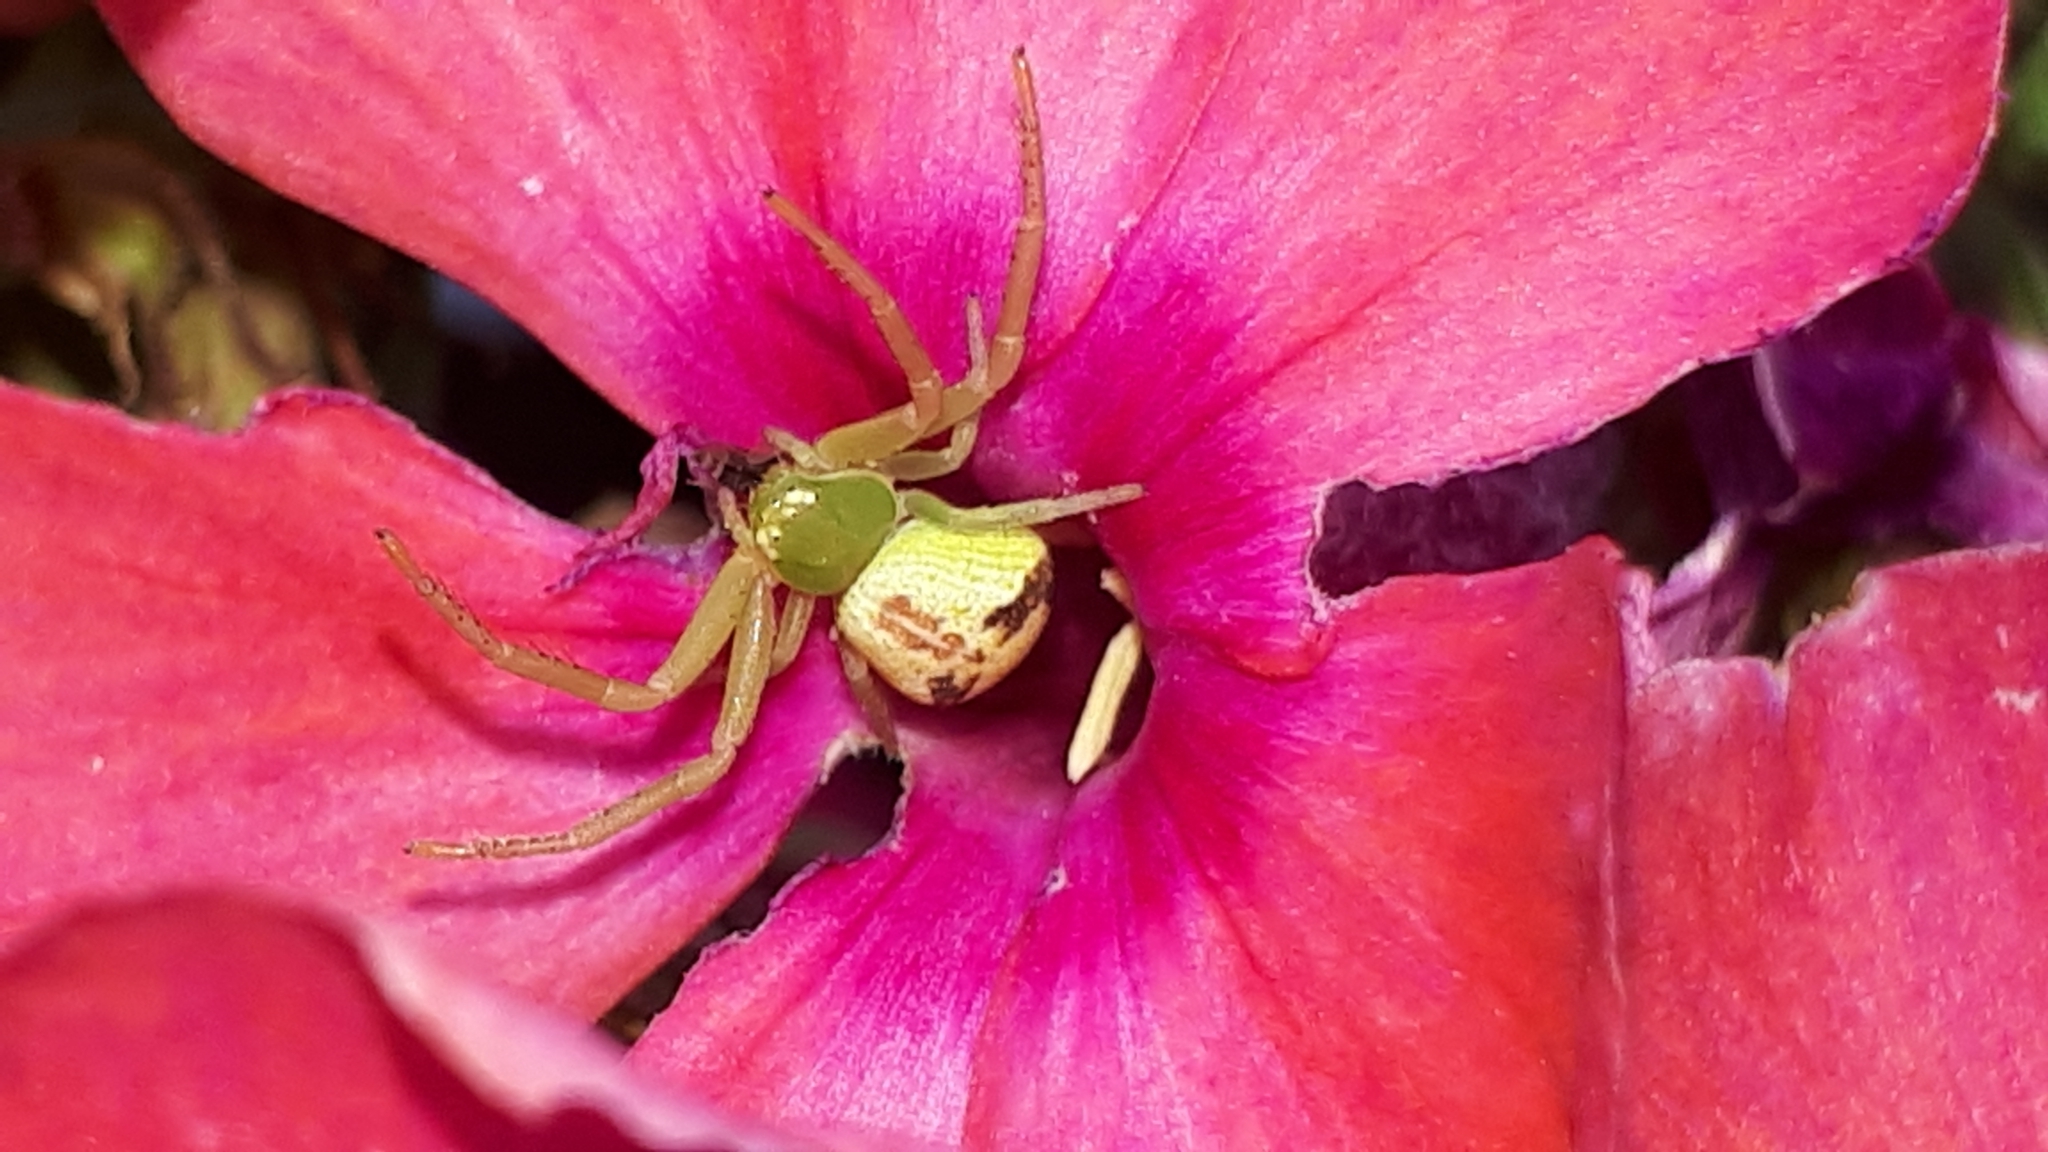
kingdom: Animalia
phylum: Arthropoda
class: Arachnida
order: Araneae
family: Thomisidae
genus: Ebrechtella
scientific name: Ebrechtella tricuspidata
